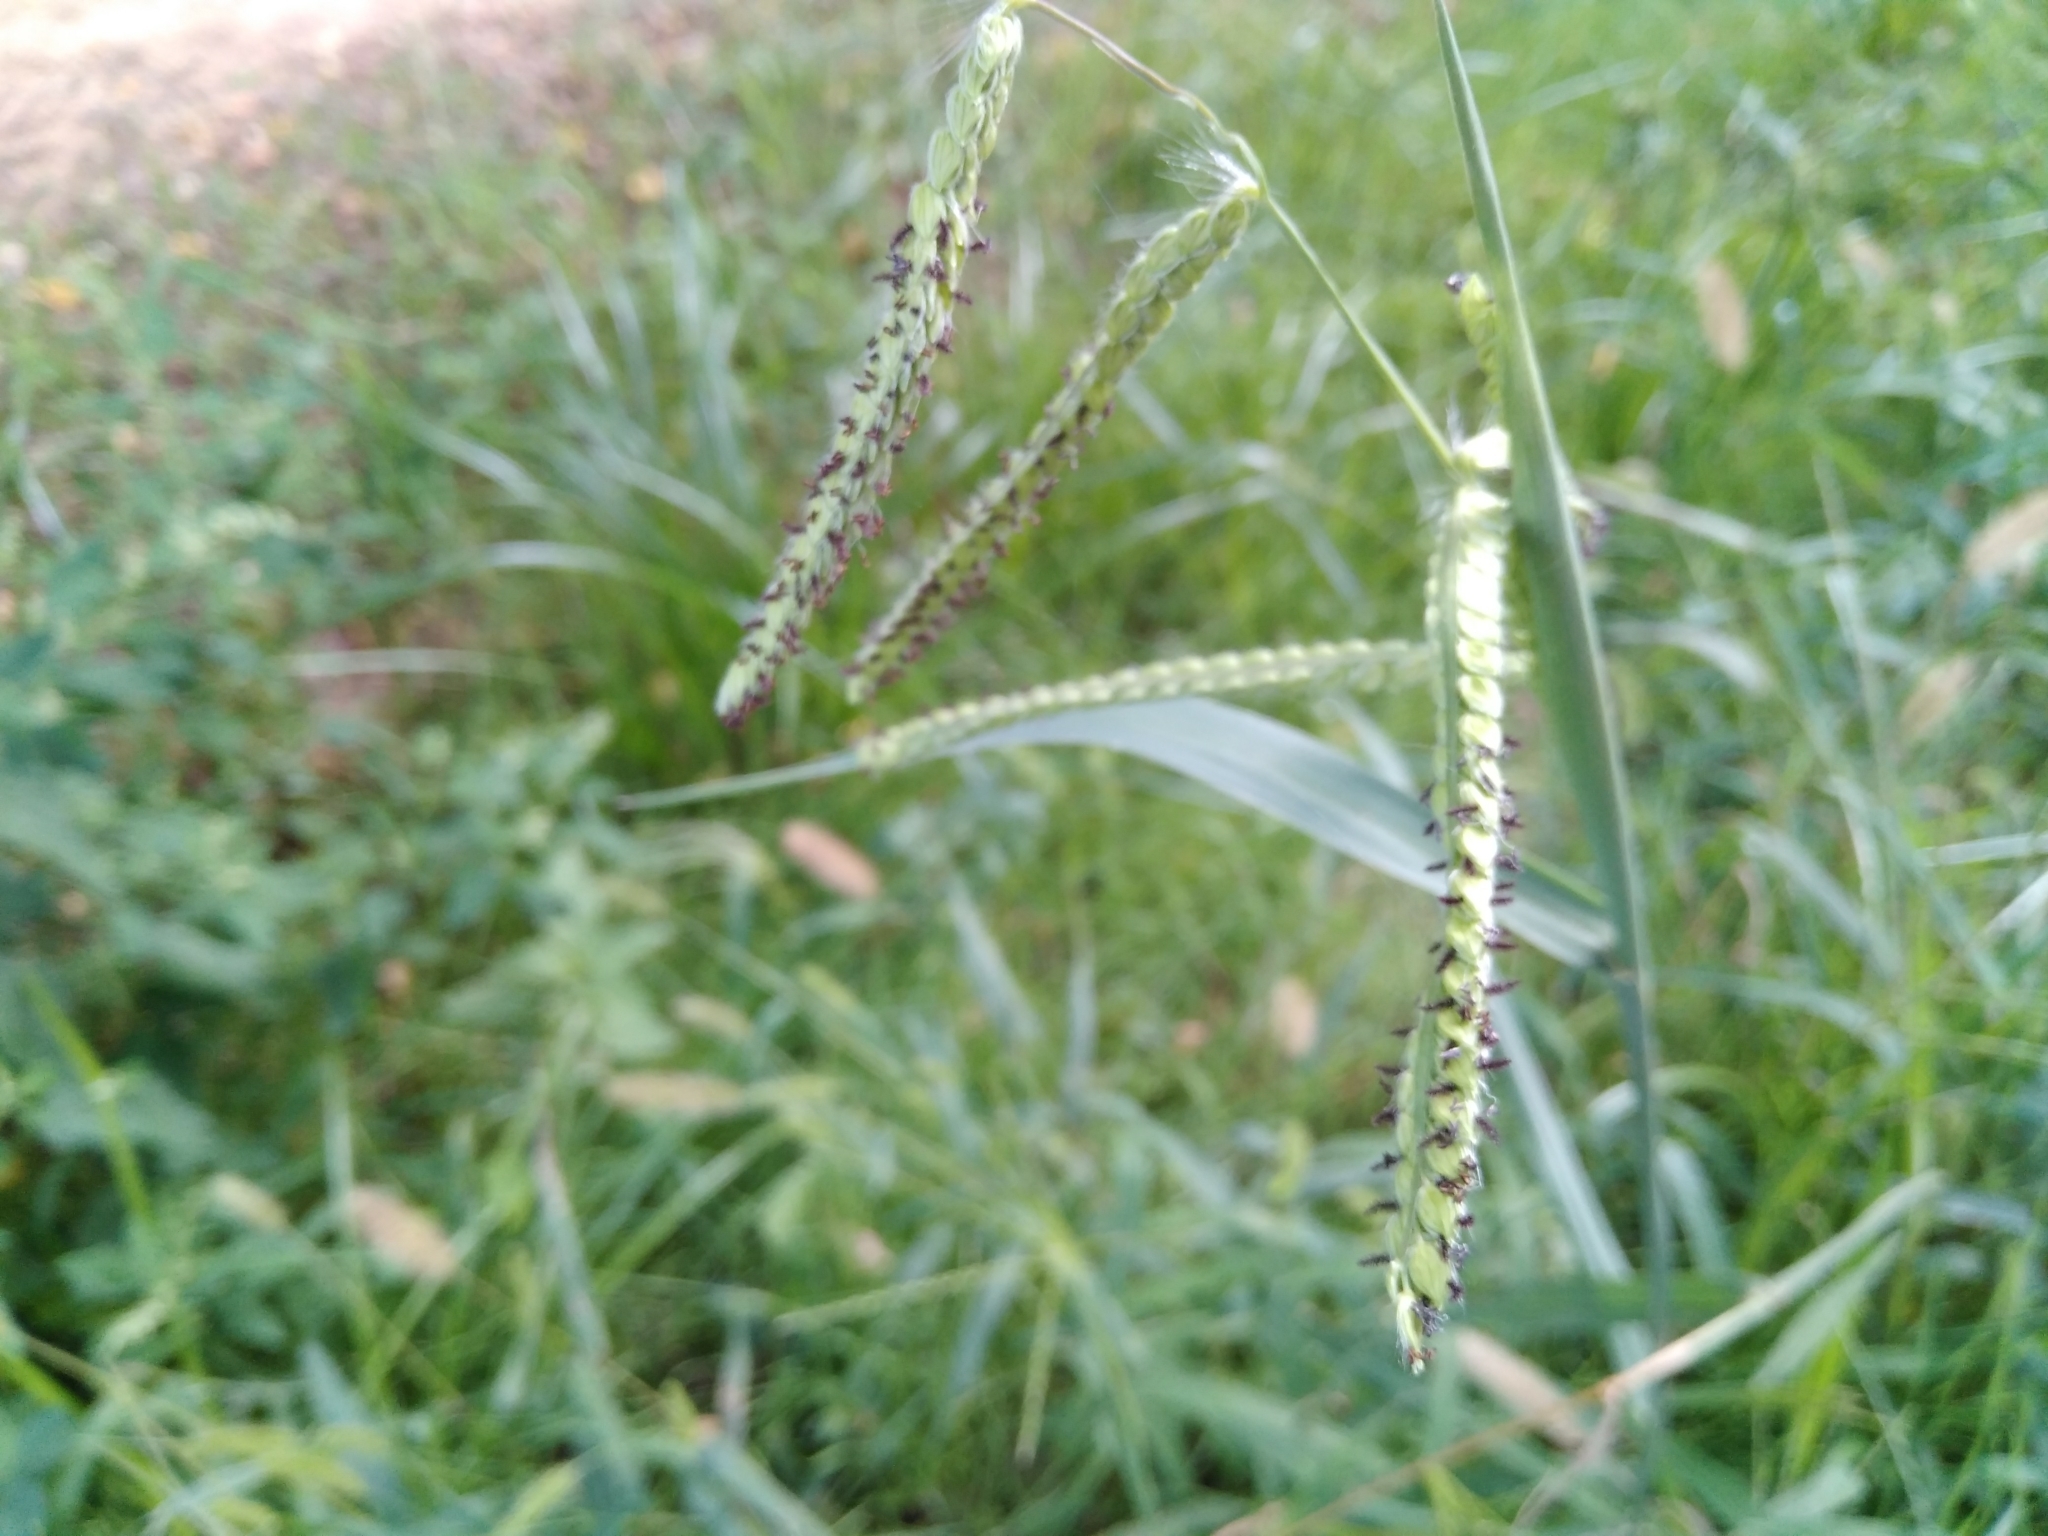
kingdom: Plantae
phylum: Tracheophyta
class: Liliopsida
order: Poales
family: Poaceae
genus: Paspalum
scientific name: Paspalum dilatatum
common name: Dallisgrass
